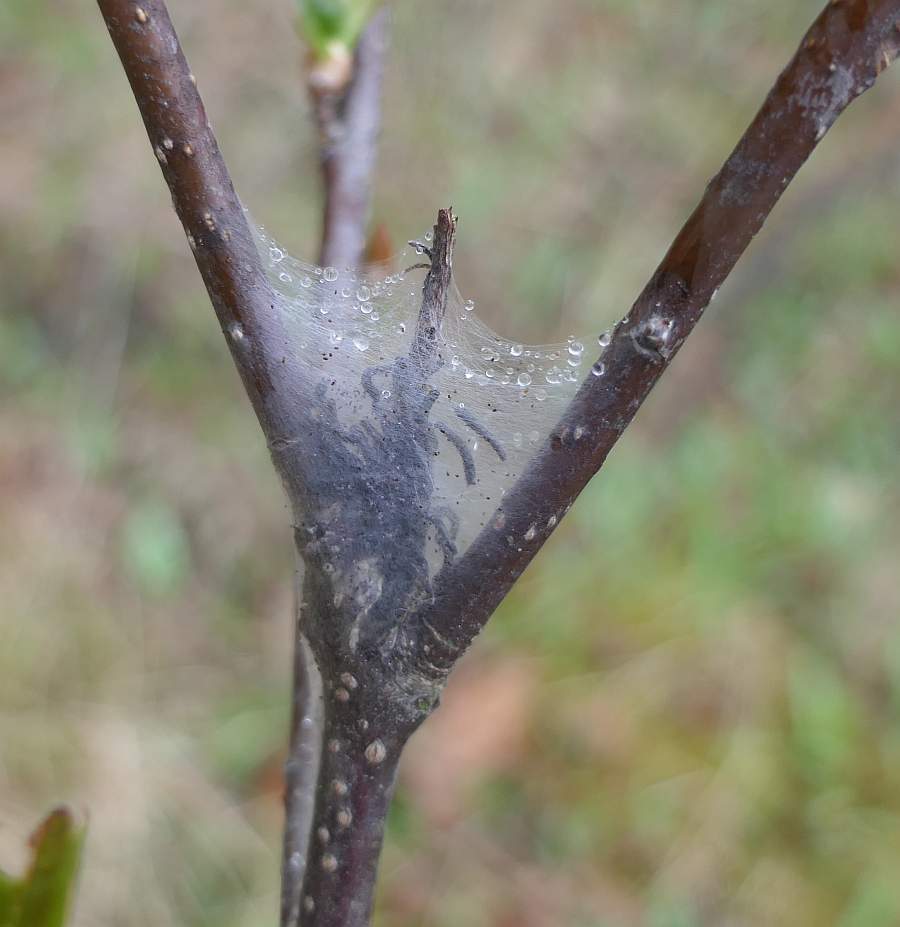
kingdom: Animalia
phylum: Arthropoda
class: Insecta
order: Lepidoptera
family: Lasiocampidae
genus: Malacosoma
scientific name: Malacosoma americana
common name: Eastern tent caterpillar moth
